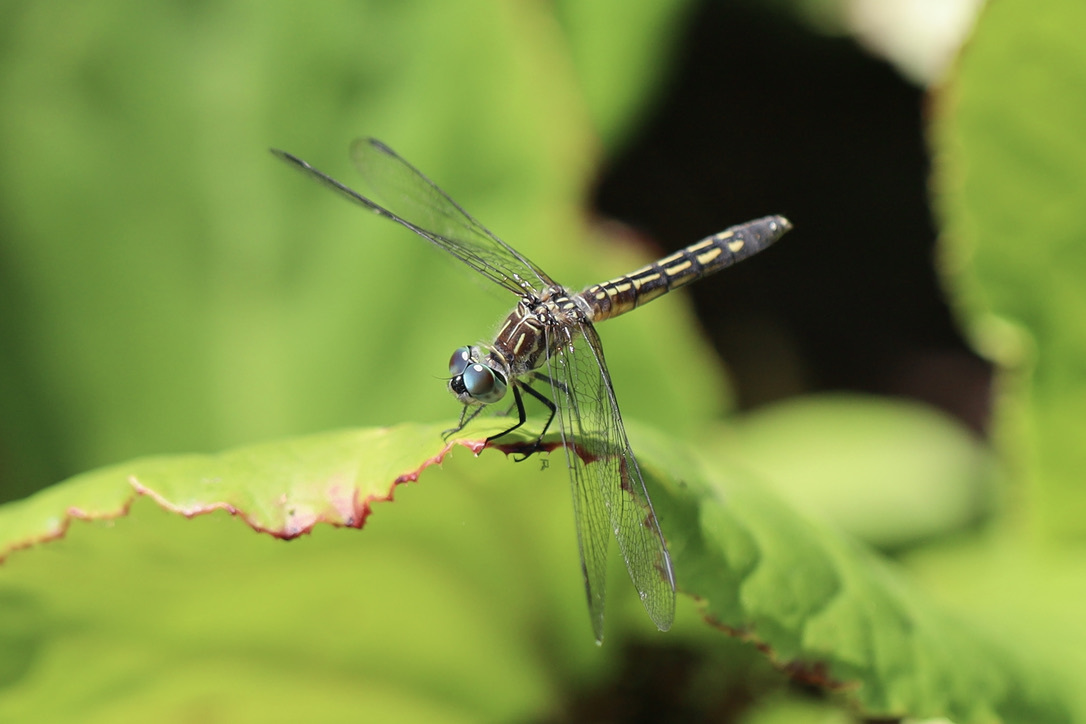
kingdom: Animalia
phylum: Arthropoda
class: Insecta
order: Odonata
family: Libellulidae
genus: Pachydiplax
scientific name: Pachydiplax longipennis
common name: Blue dasher
